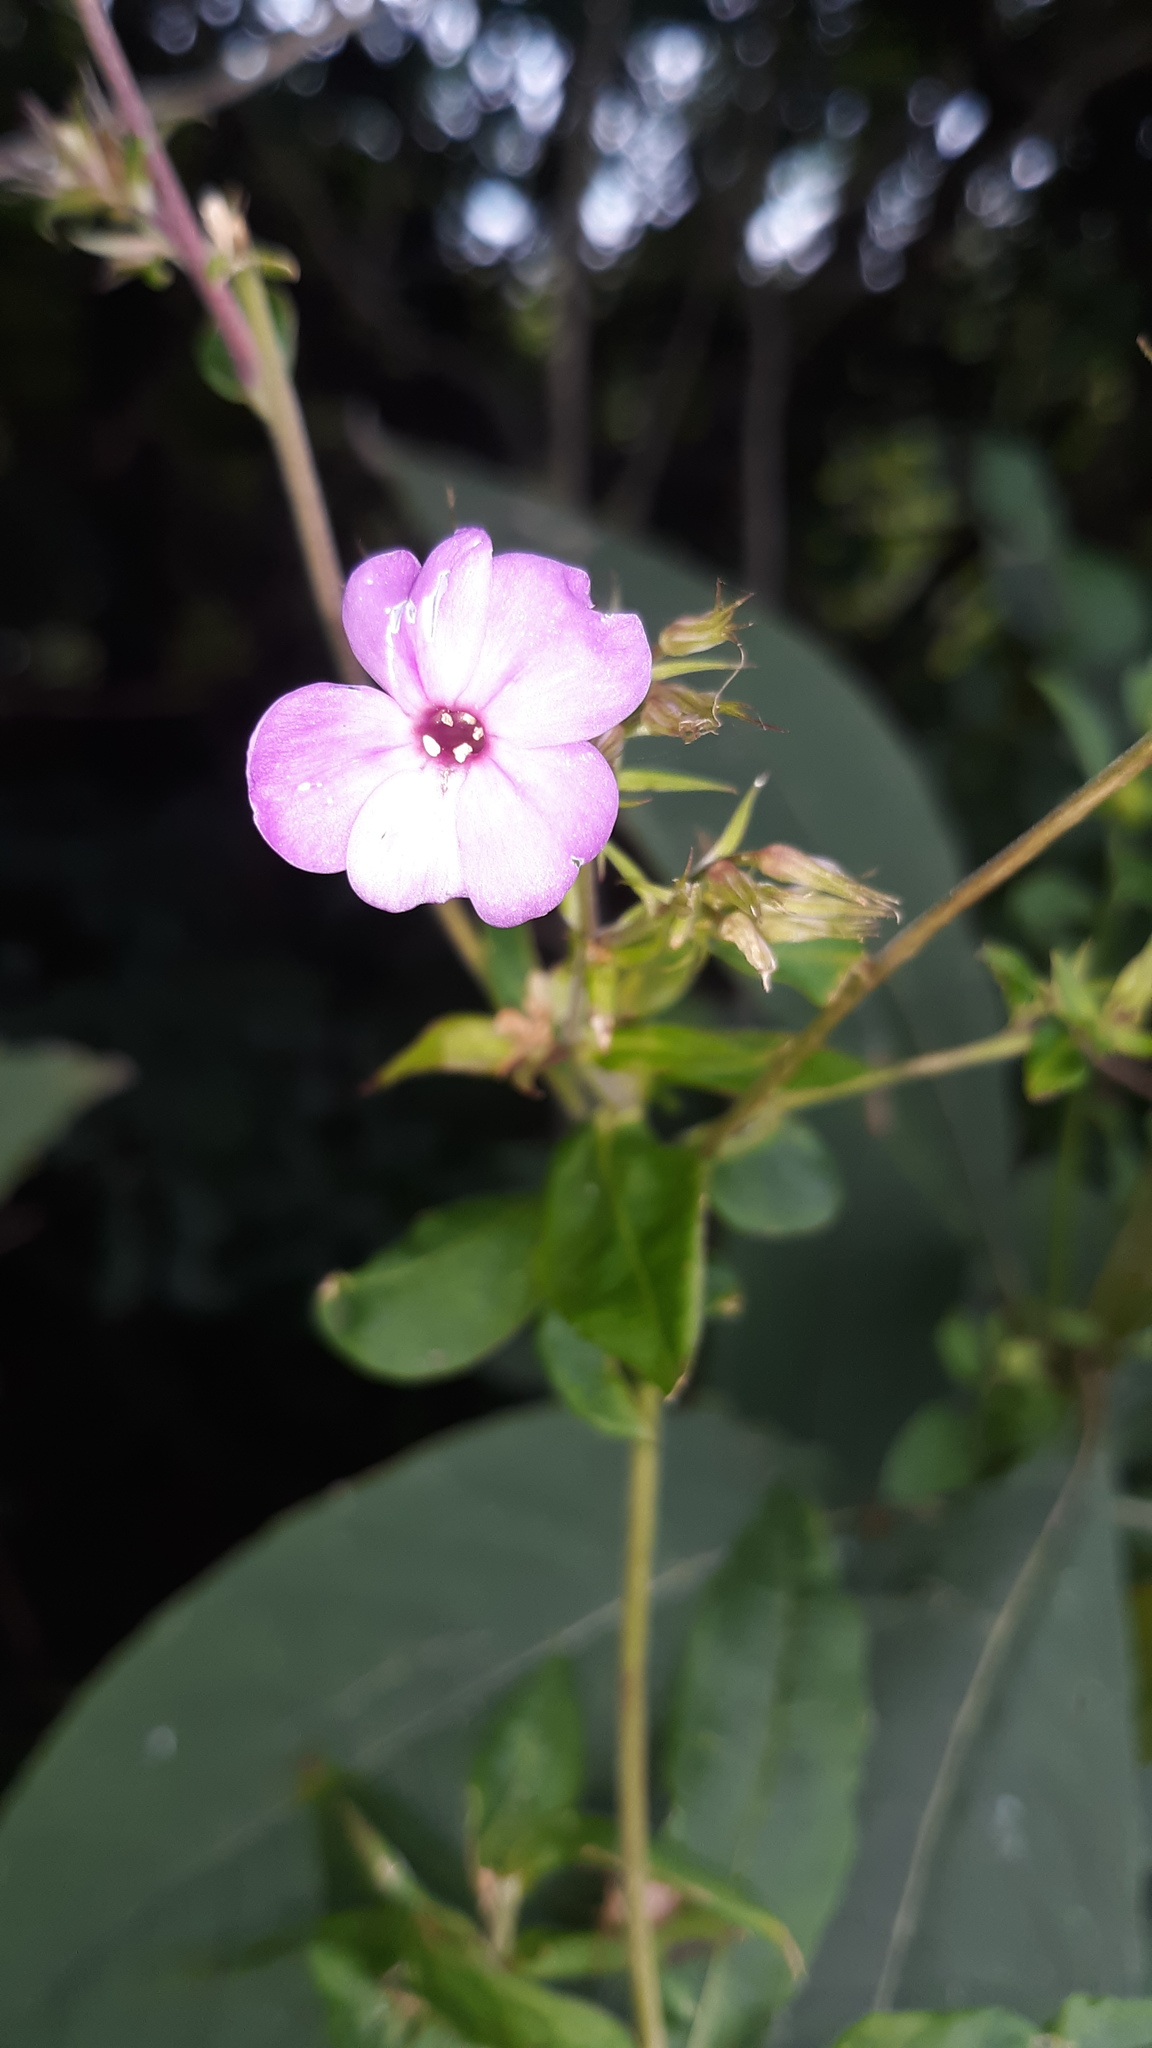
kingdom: Plantae
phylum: Tracheophyta
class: Magnoliopsida
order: Ericales
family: Polemoniaceae
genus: Phlox
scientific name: Phlox paniculata
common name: Fall phlox
